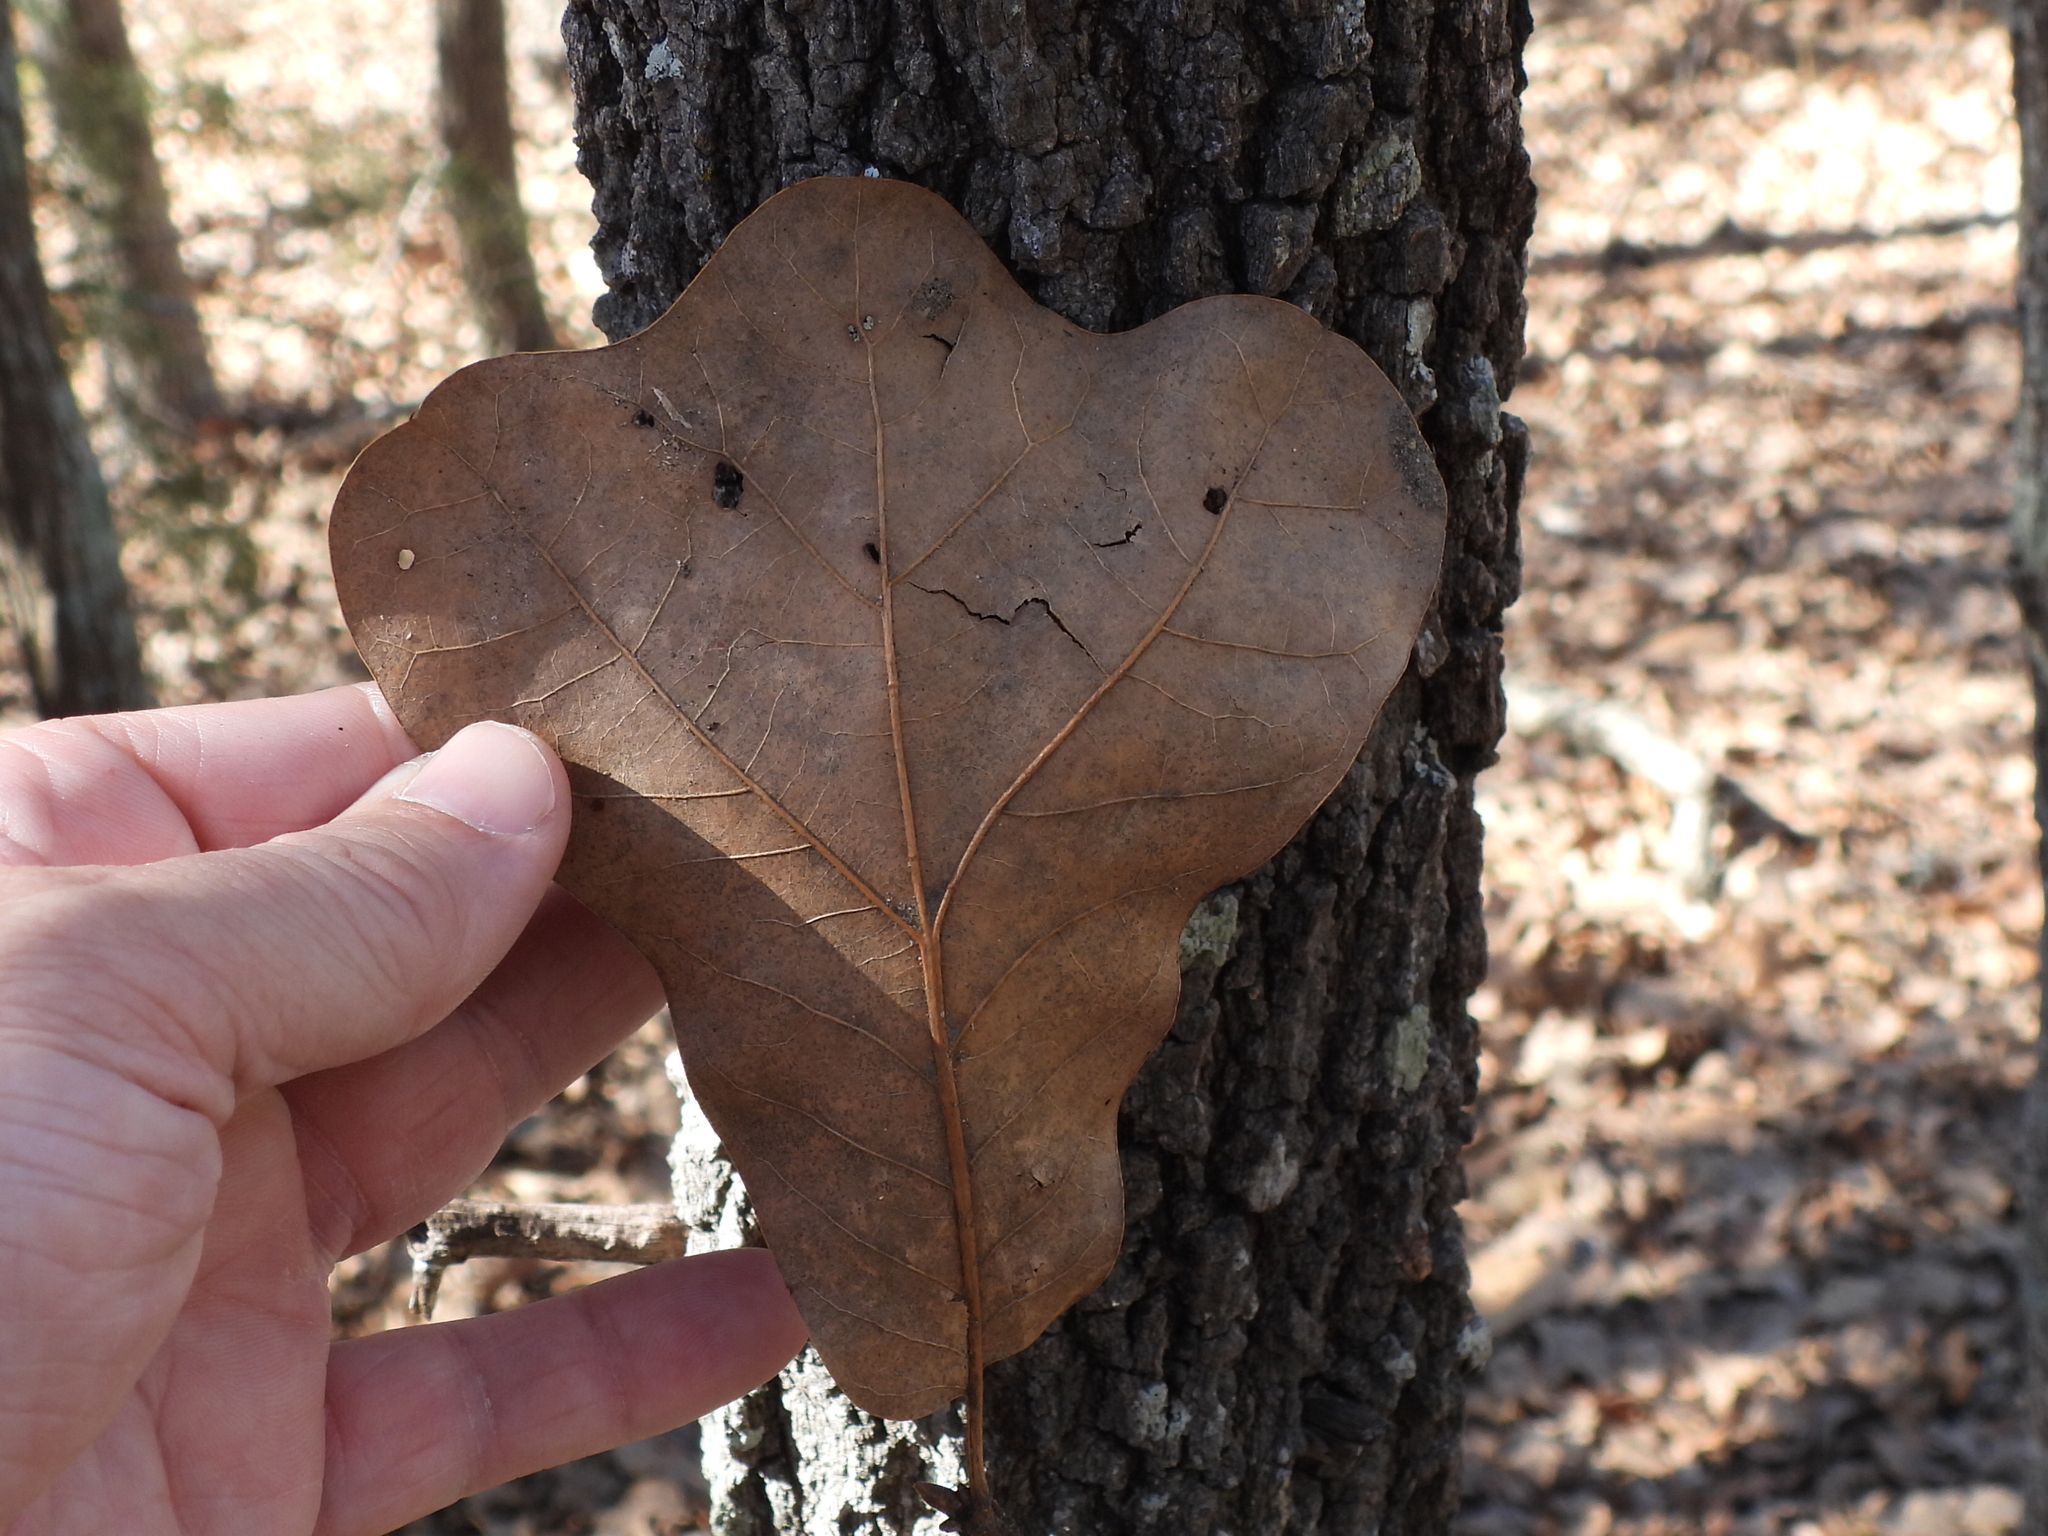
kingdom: Plantae
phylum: Tracheophyta
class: Magnoliopsida
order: Fagales
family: Fagaceae
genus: Quercus
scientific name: Quercus marilandica
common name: Blackjack oak
